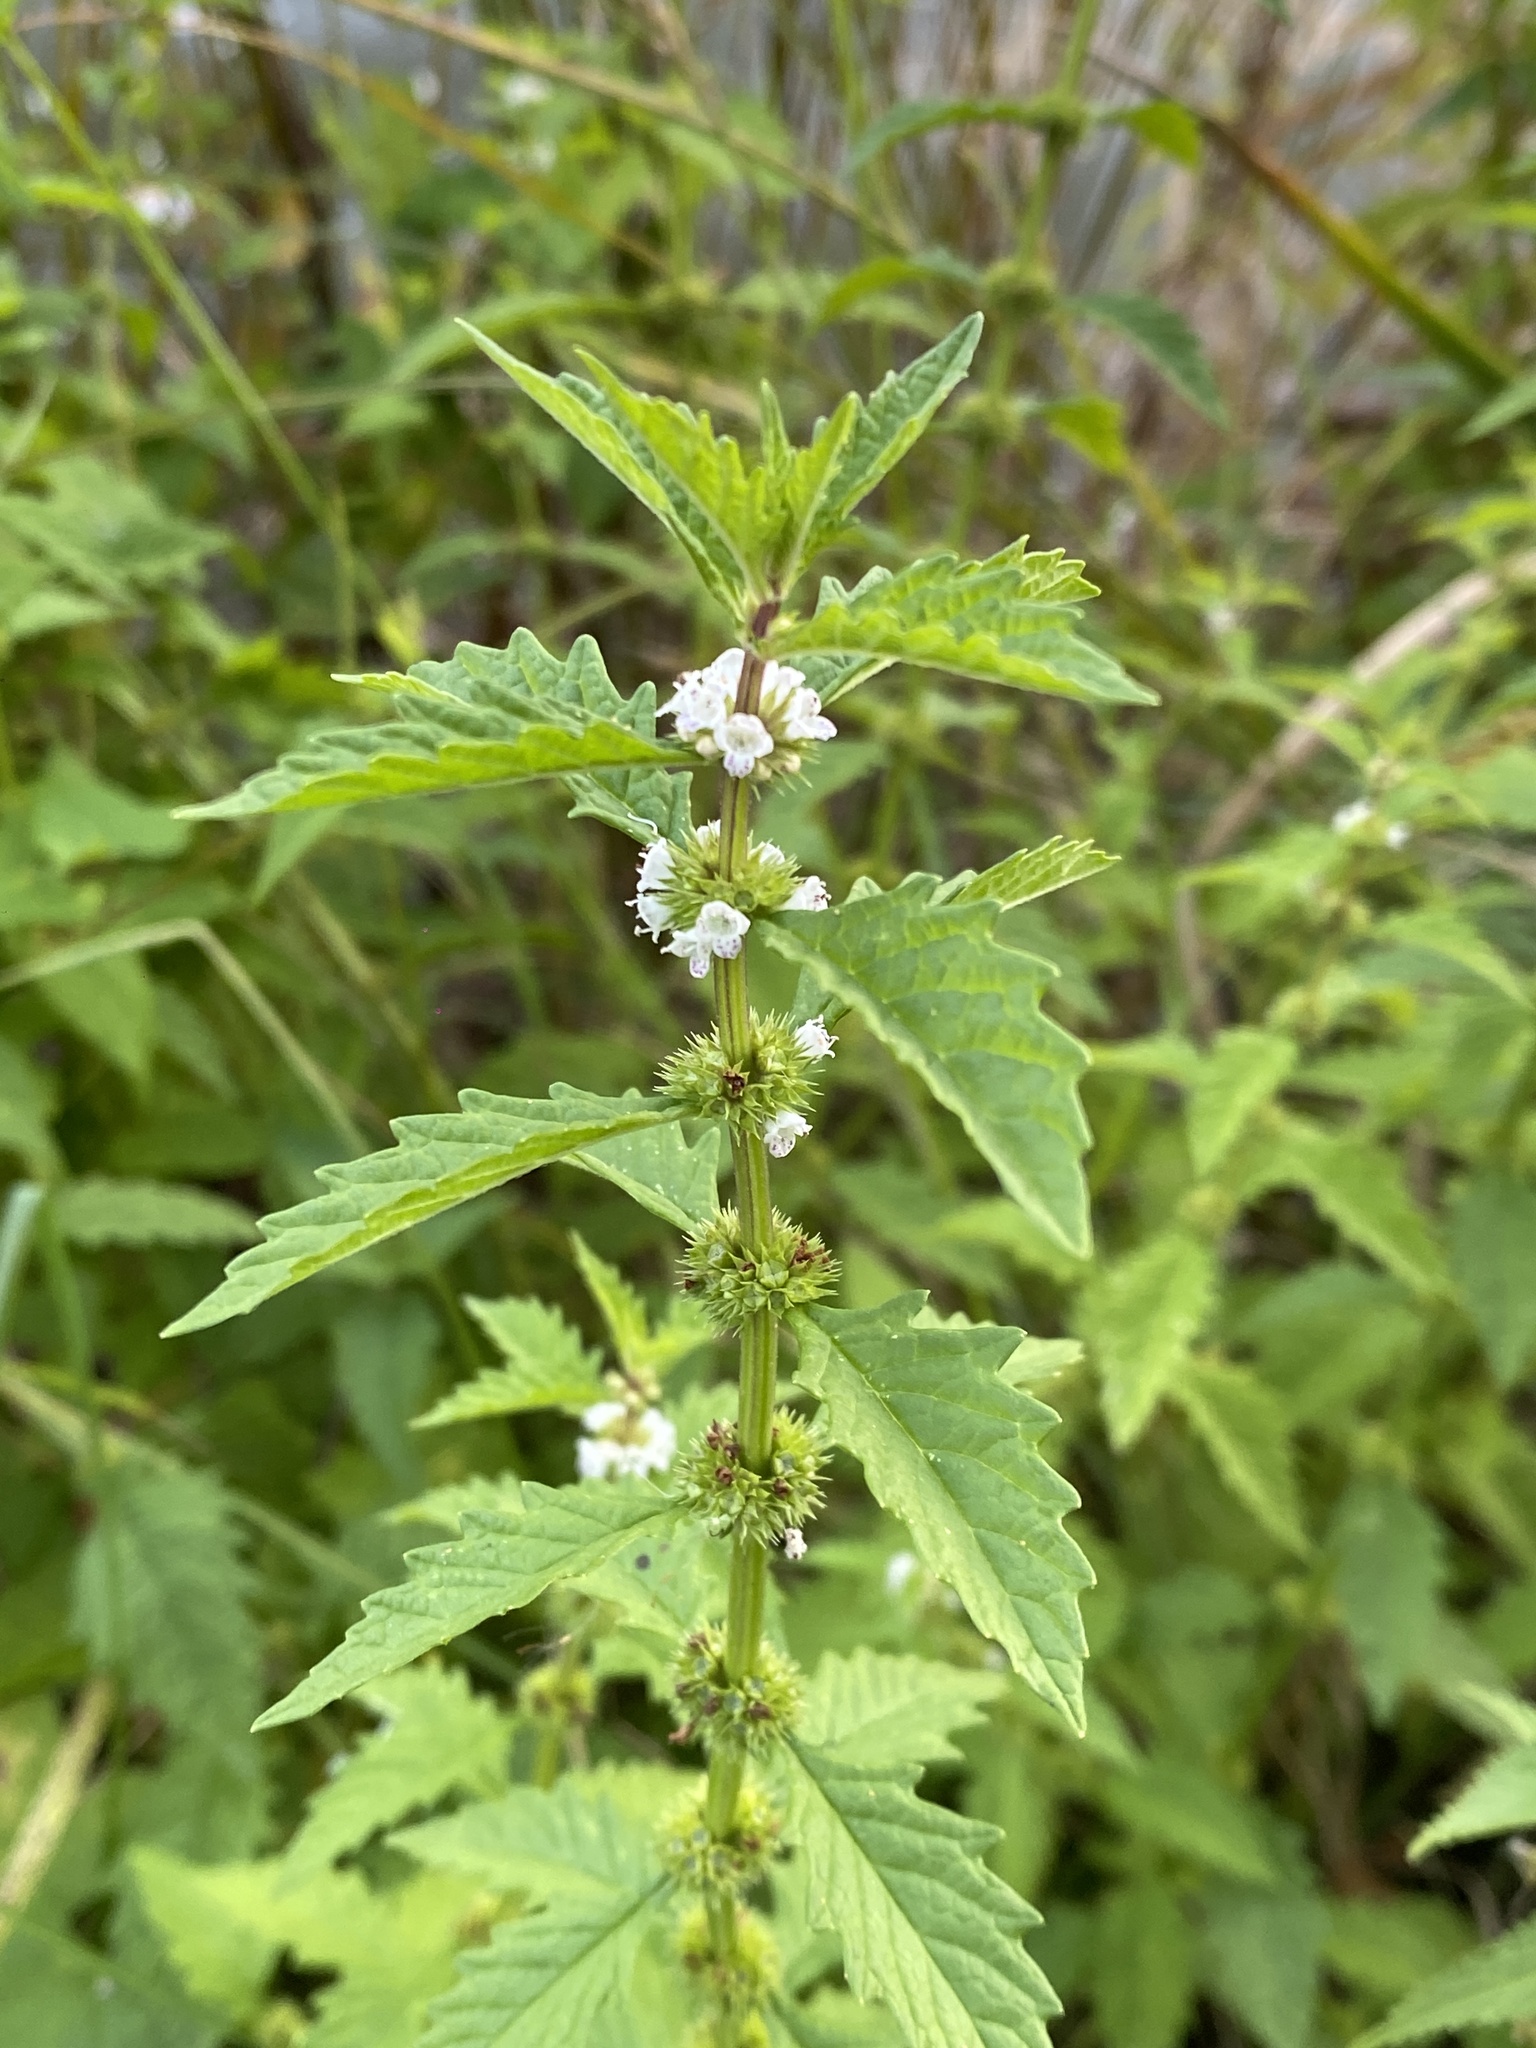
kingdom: Plantae
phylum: Tracheophyta
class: Magnoliopsida
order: Lamiales
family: Lamiaceae
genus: Lycopus
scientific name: Lycopus europaeus
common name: European bugleweed
